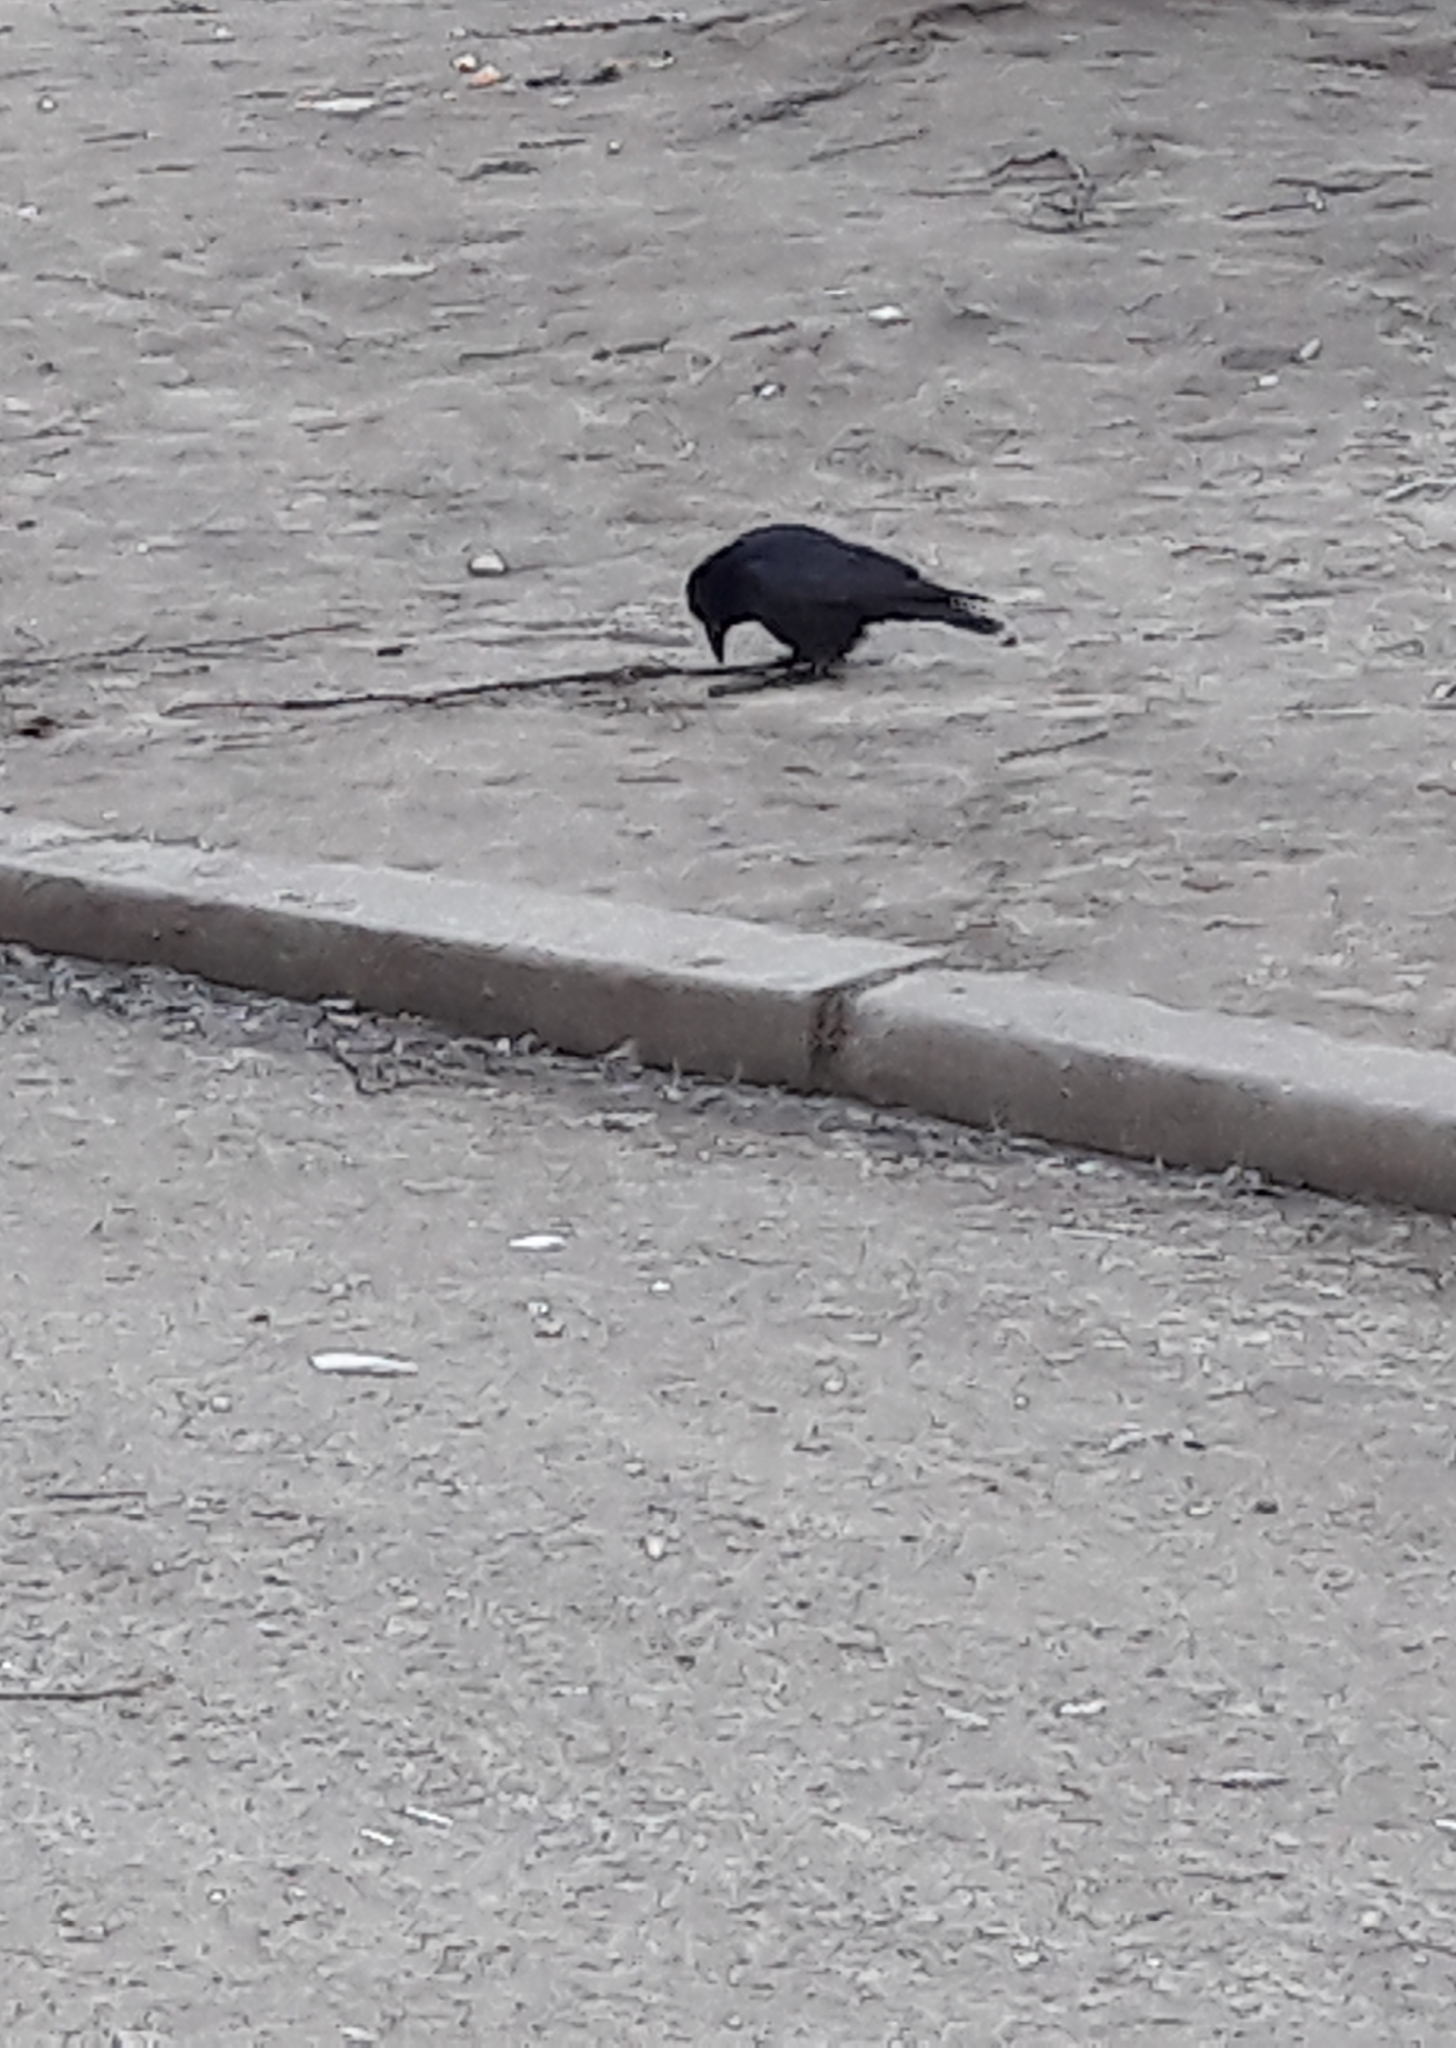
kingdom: Animalia
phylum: Chordata
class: Aves
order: Passeriformes
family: Corvidae
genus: Corvus
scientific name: Corvus corone
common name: Carrion crow
